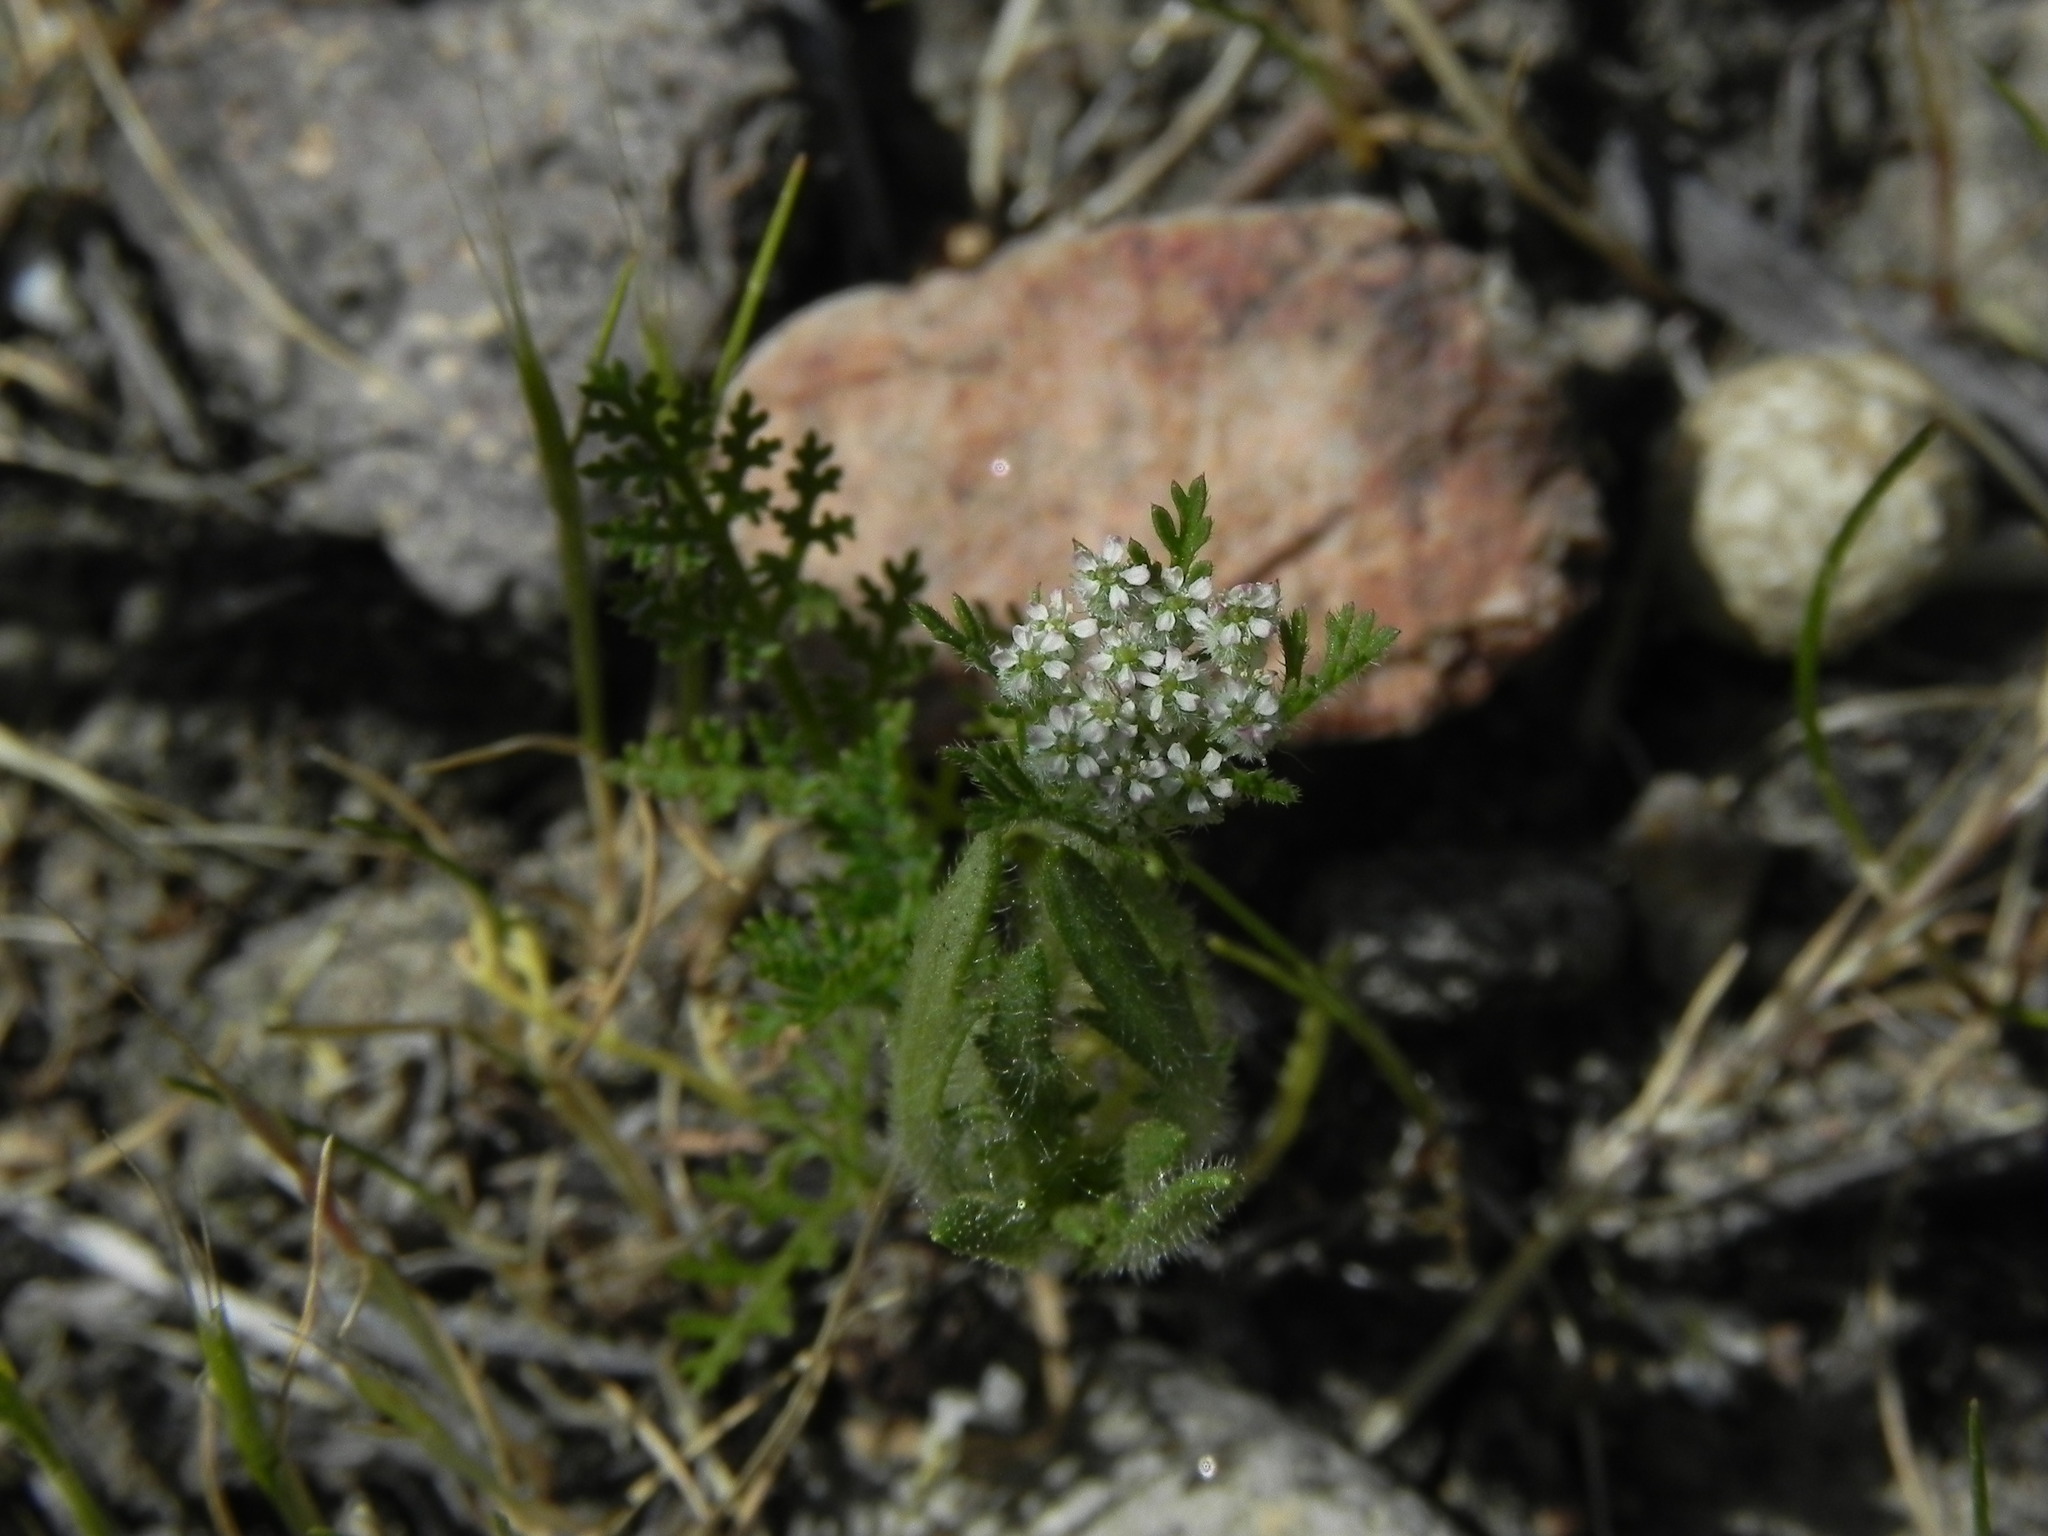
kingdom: Plantae
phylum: Tracheophyta
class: Magnoliopsida
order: Apiales
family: Apiaceae
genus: Daucus
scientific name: Daucus pusillus
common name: Southwest wild carrot
